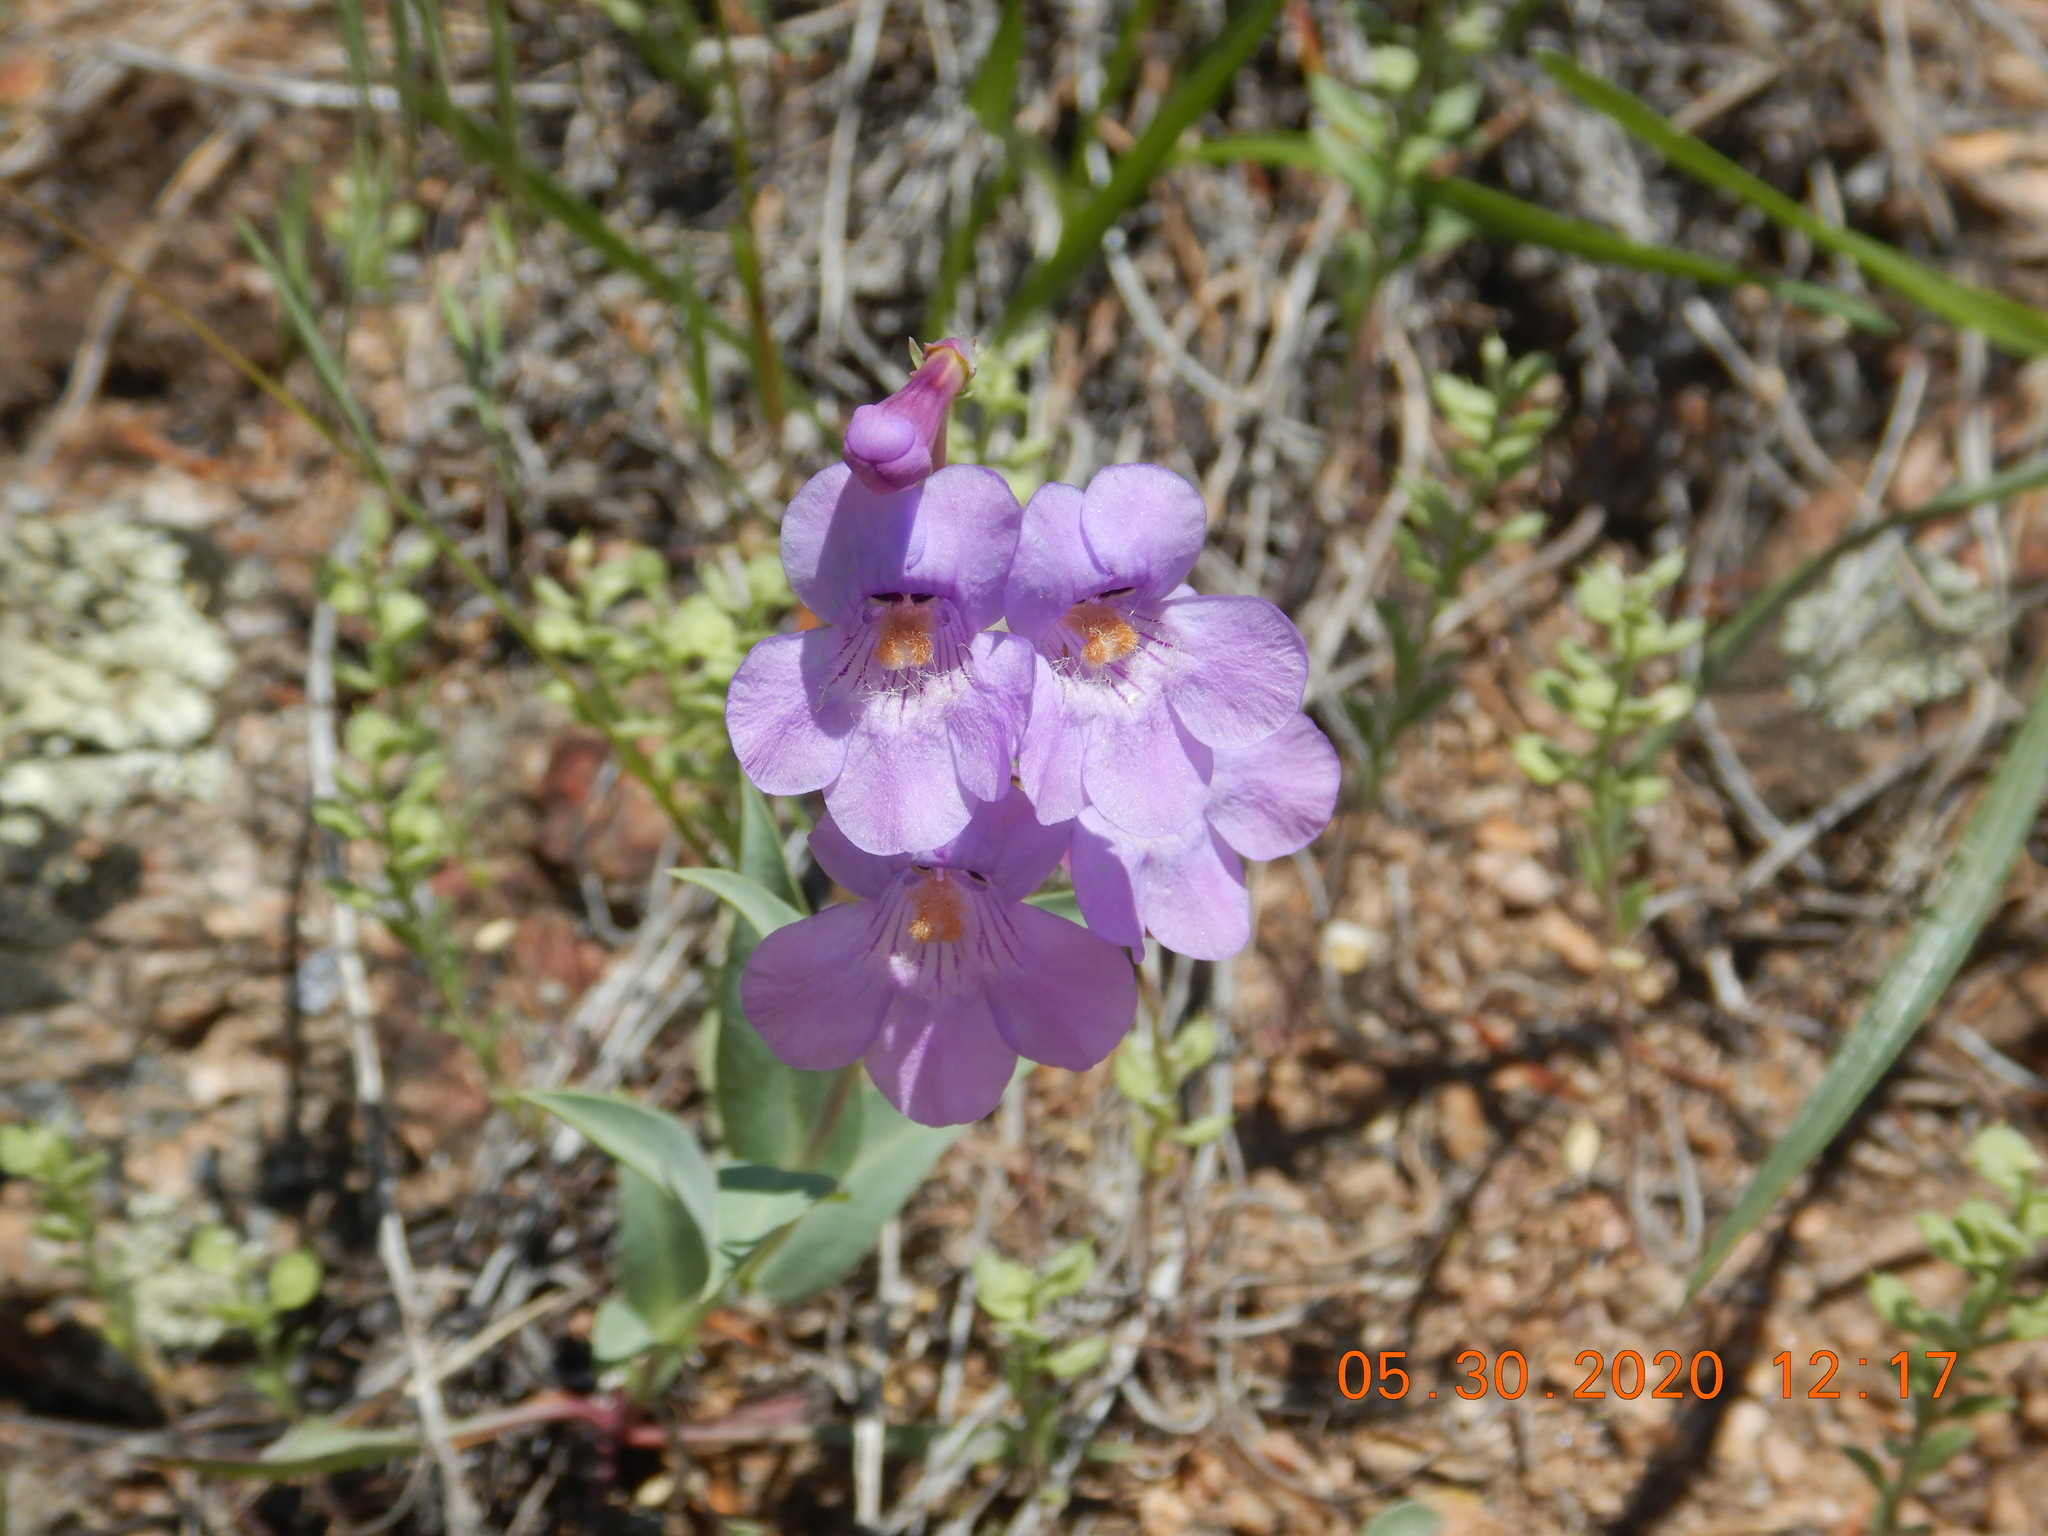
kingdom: Plantae
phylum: Tracheophyta
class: Magnoliopsida
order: Lamiales
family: Plantaginaceae
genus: Penstemon
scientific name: Penstemon secundiflorus
